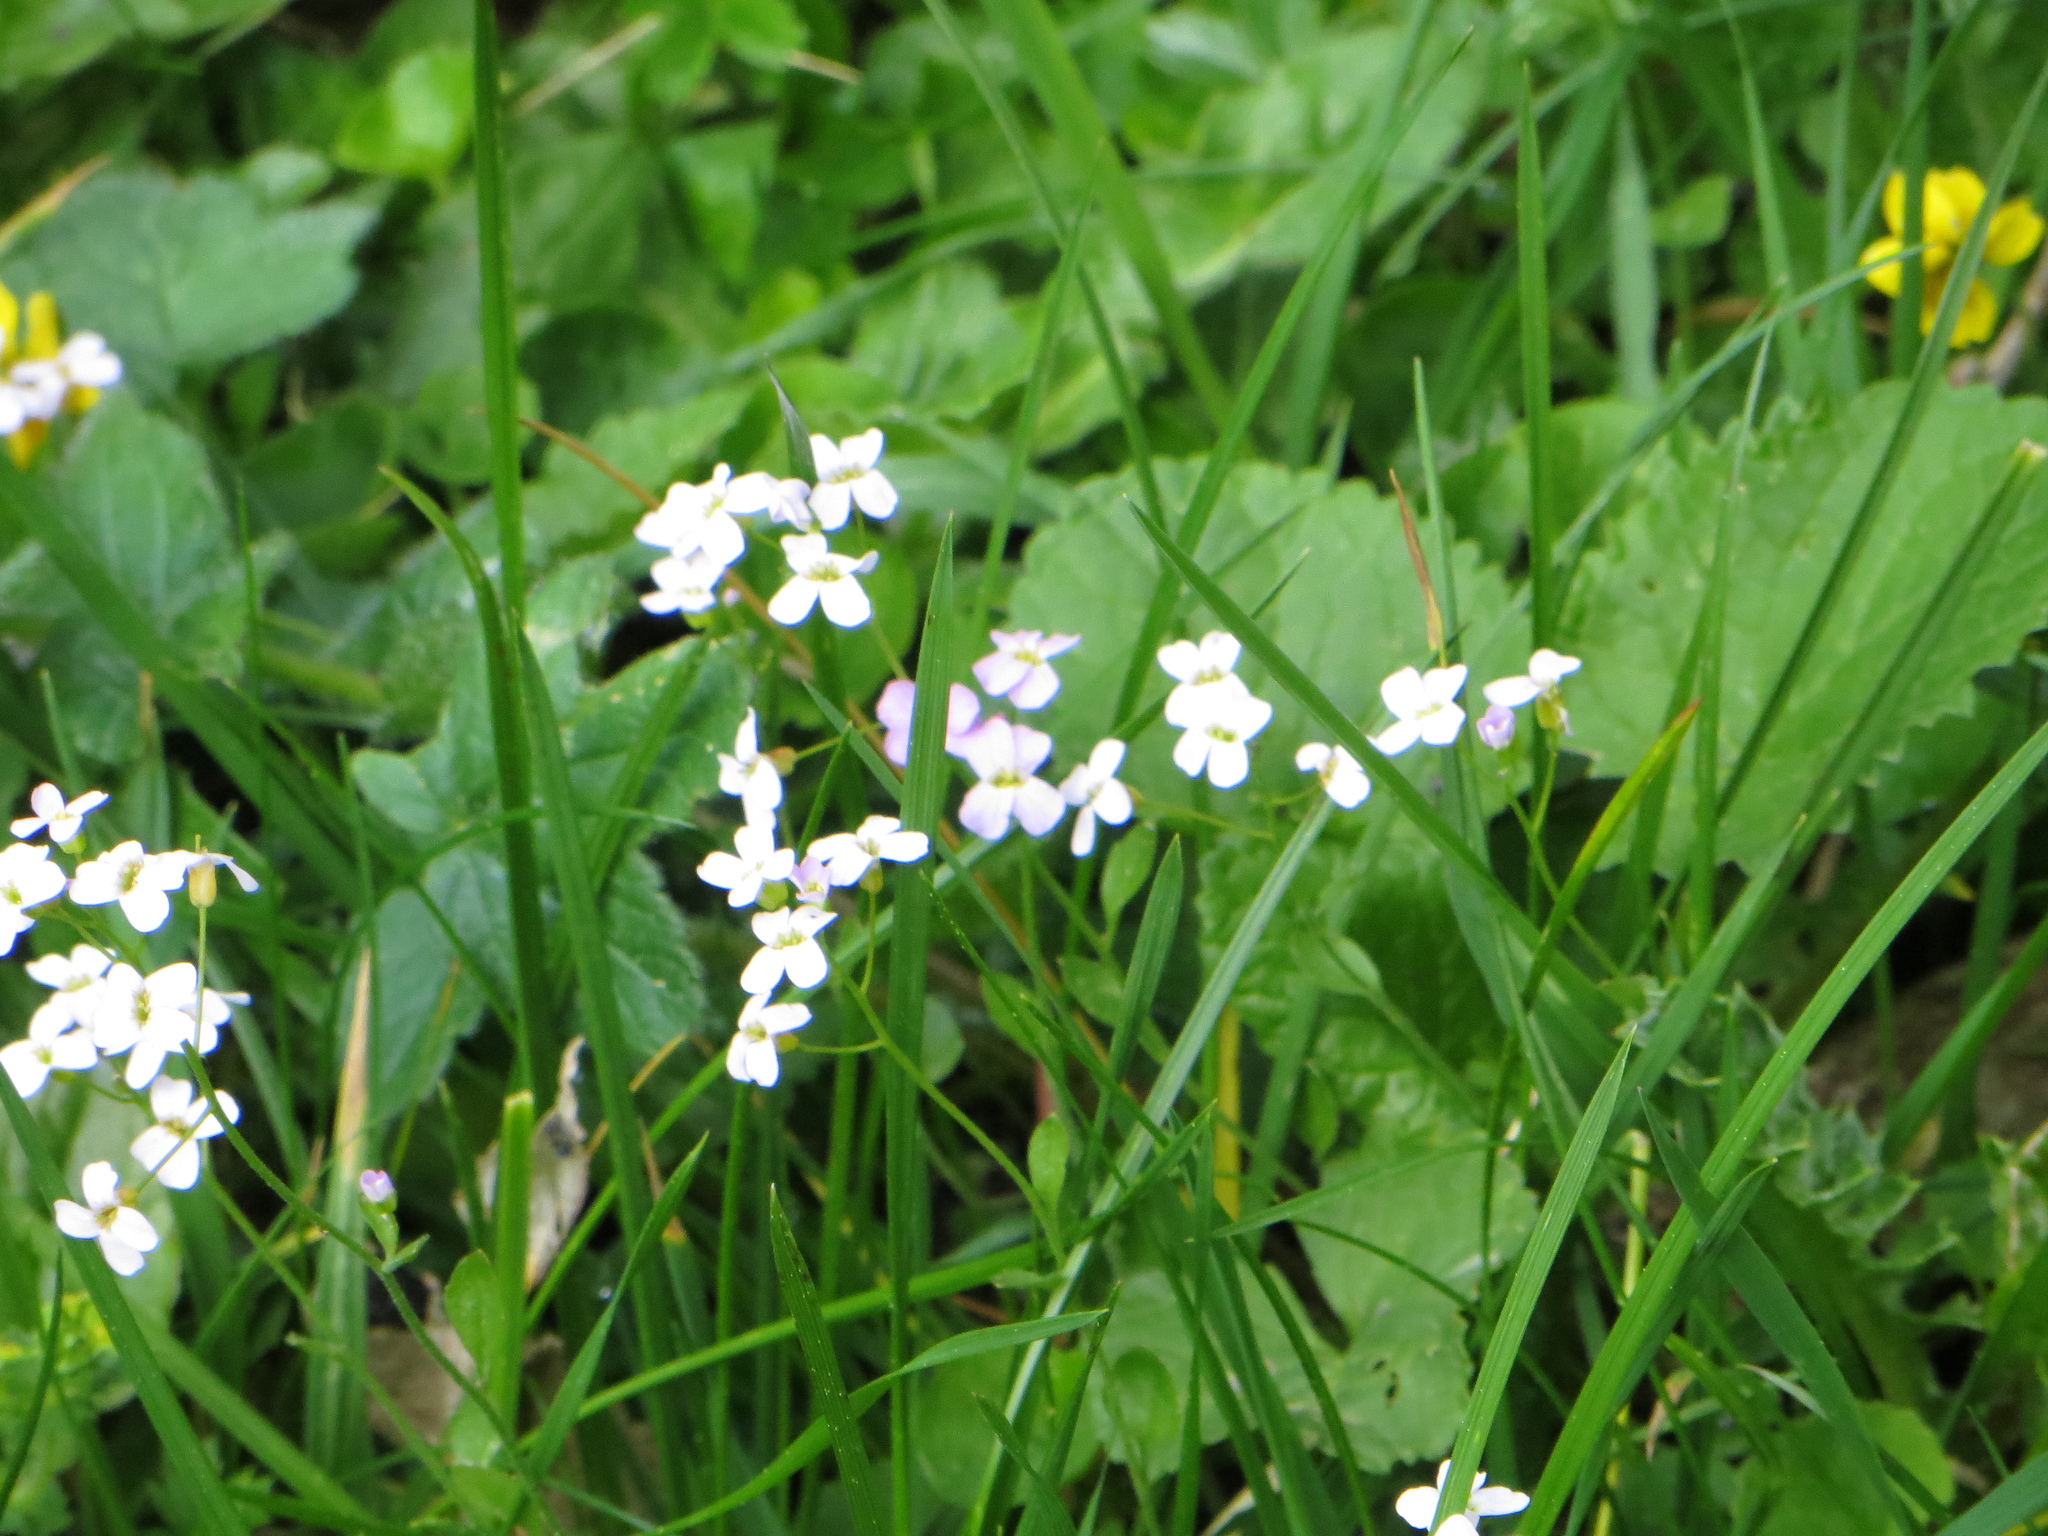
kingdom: Plantae
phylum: Tracheophyta
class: Magnoliopsida
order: Brassicales
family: Brassicaceae
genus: Cardamine
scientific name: Cardamine pratensis
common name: Cuckoo flower
